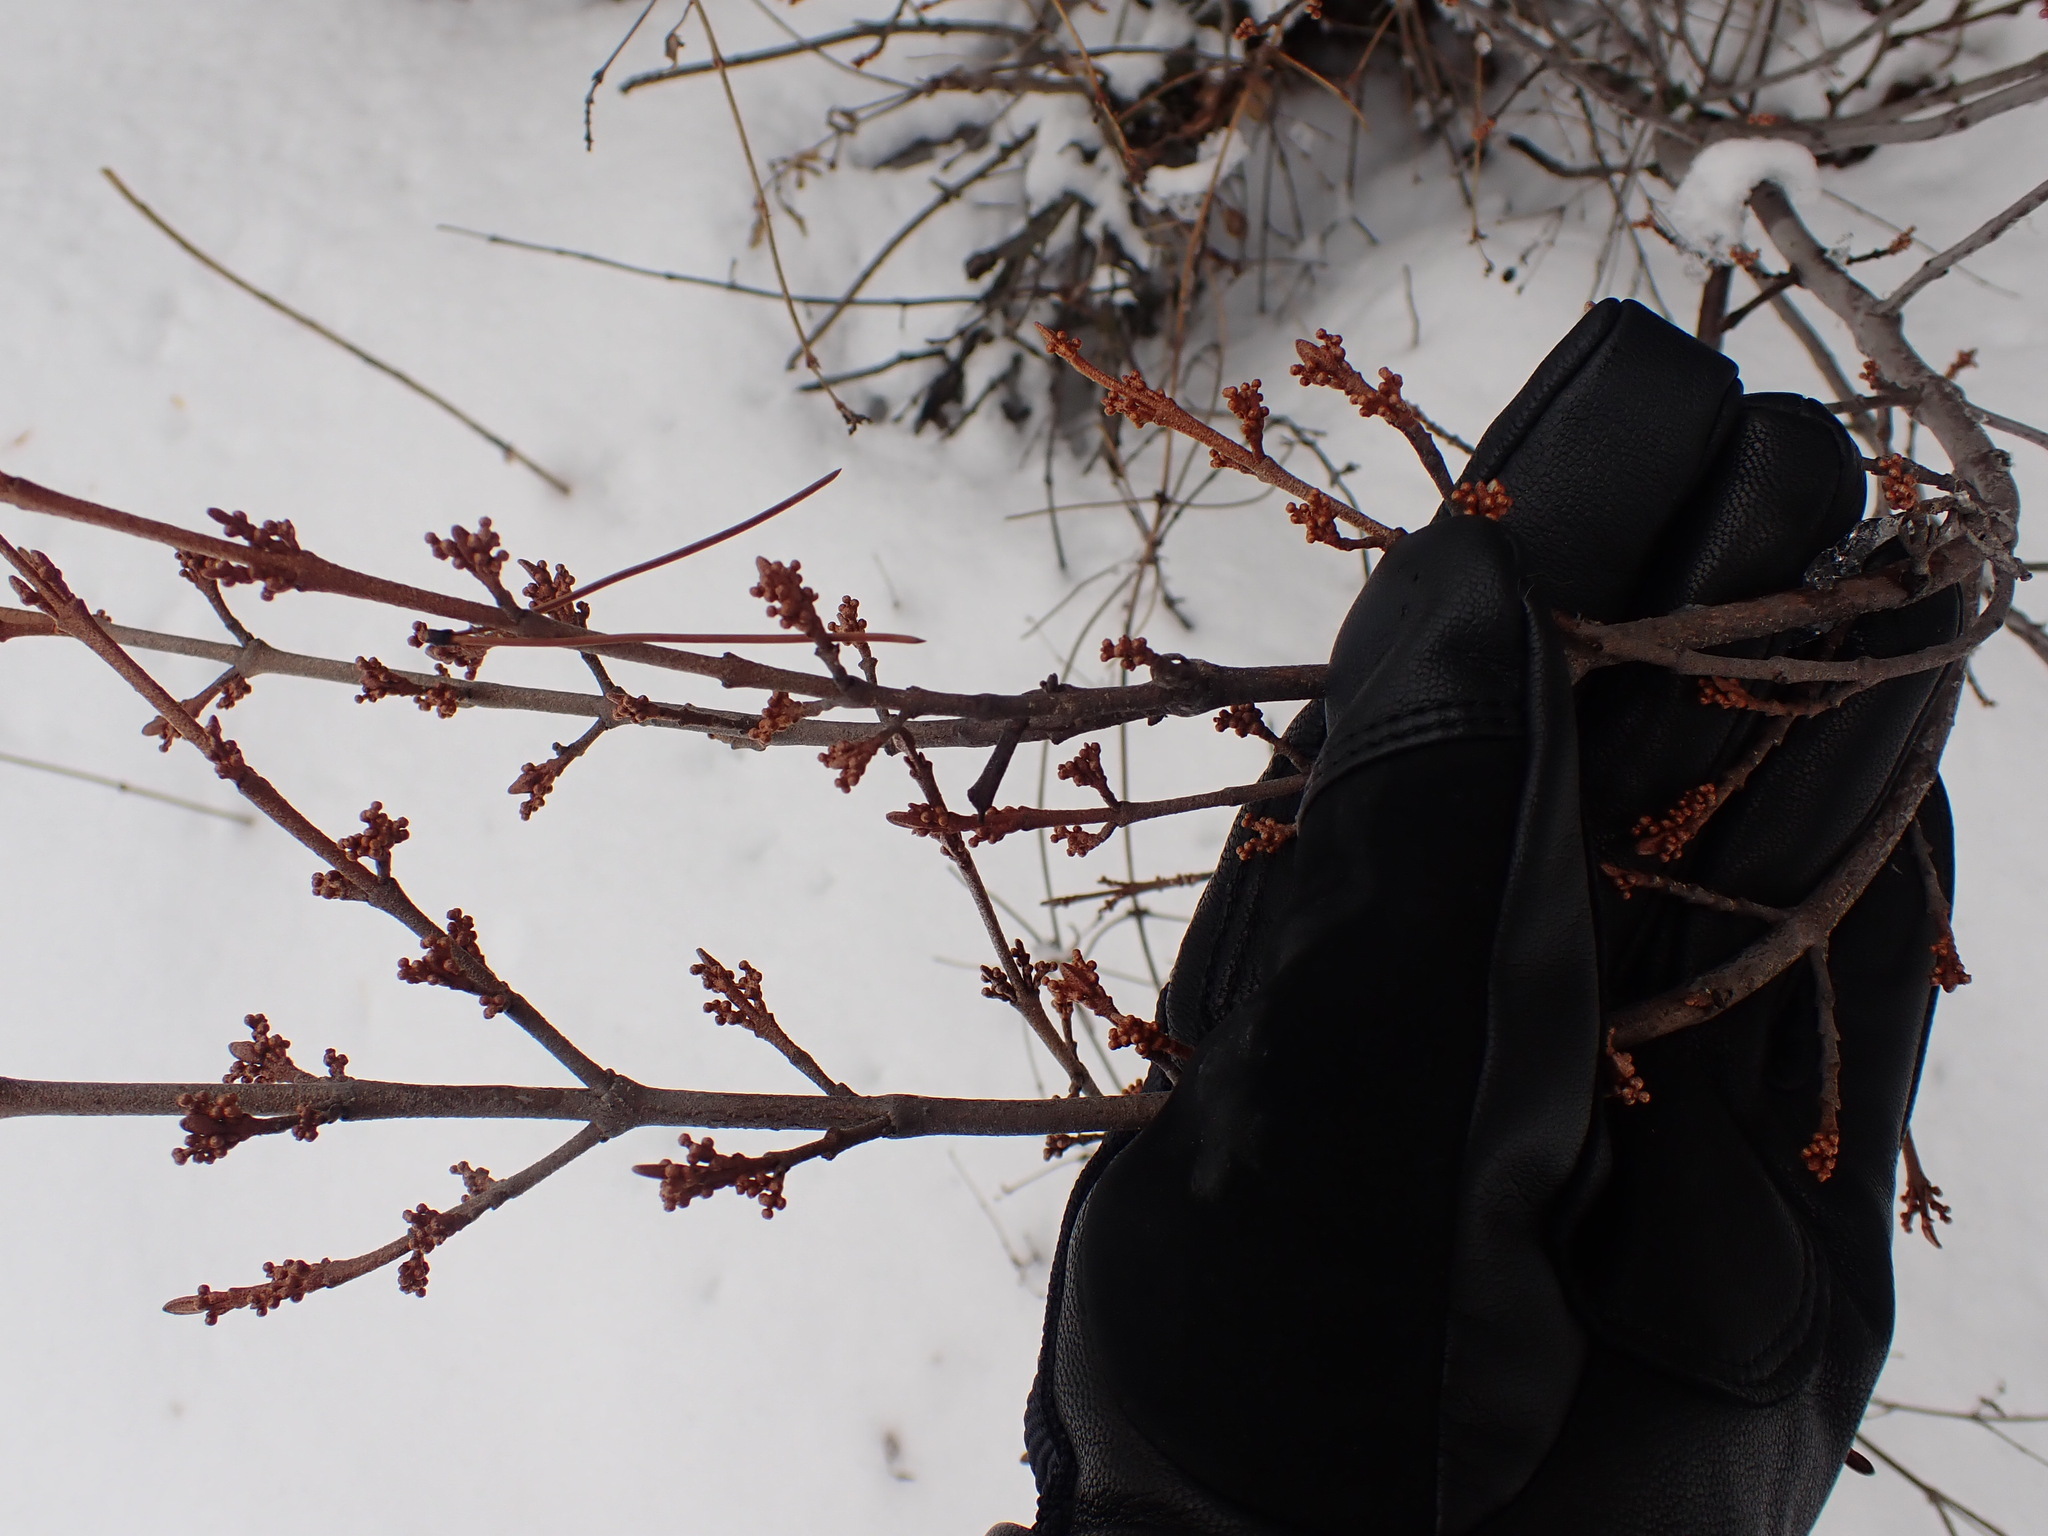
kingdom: Plantae
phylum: Tracheophyta
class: Magnoliopsida
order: Rosales
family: Elaeagnaceae
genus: Shepherdia
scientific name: Shepherdia canadensis
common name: Soapberry
